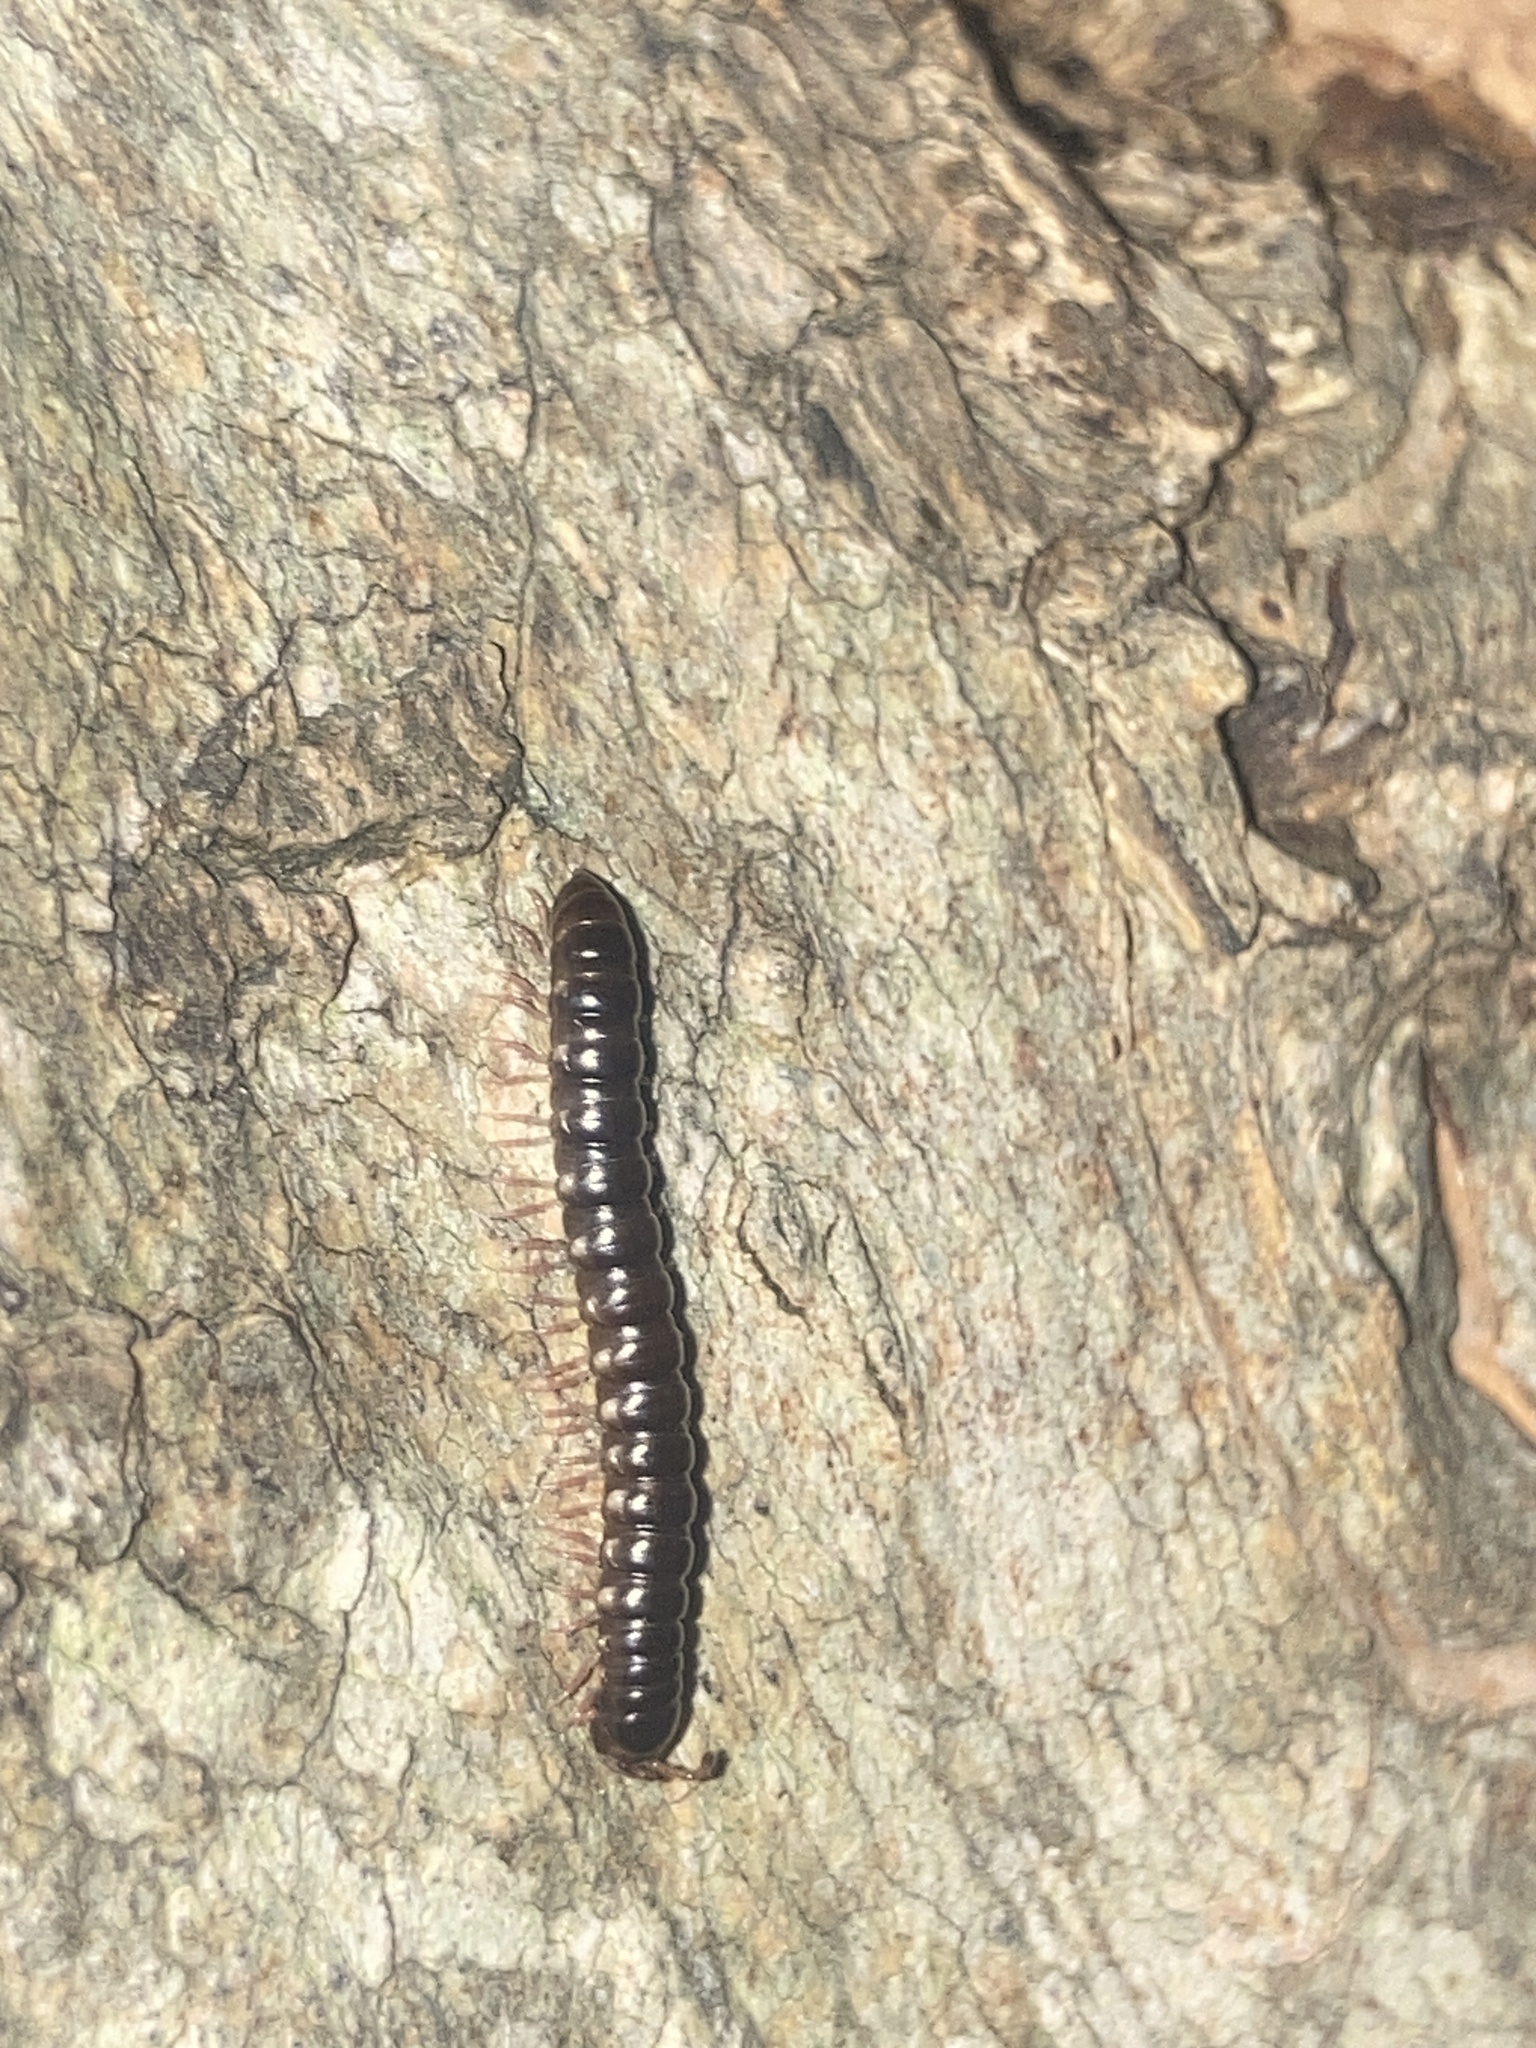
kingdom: Animalia
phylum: Arthropoda
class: Diplopoda
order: Polydesmida
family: Paradoxosomatidae
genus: Heterocladosoma
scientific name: Heterocladosoma
